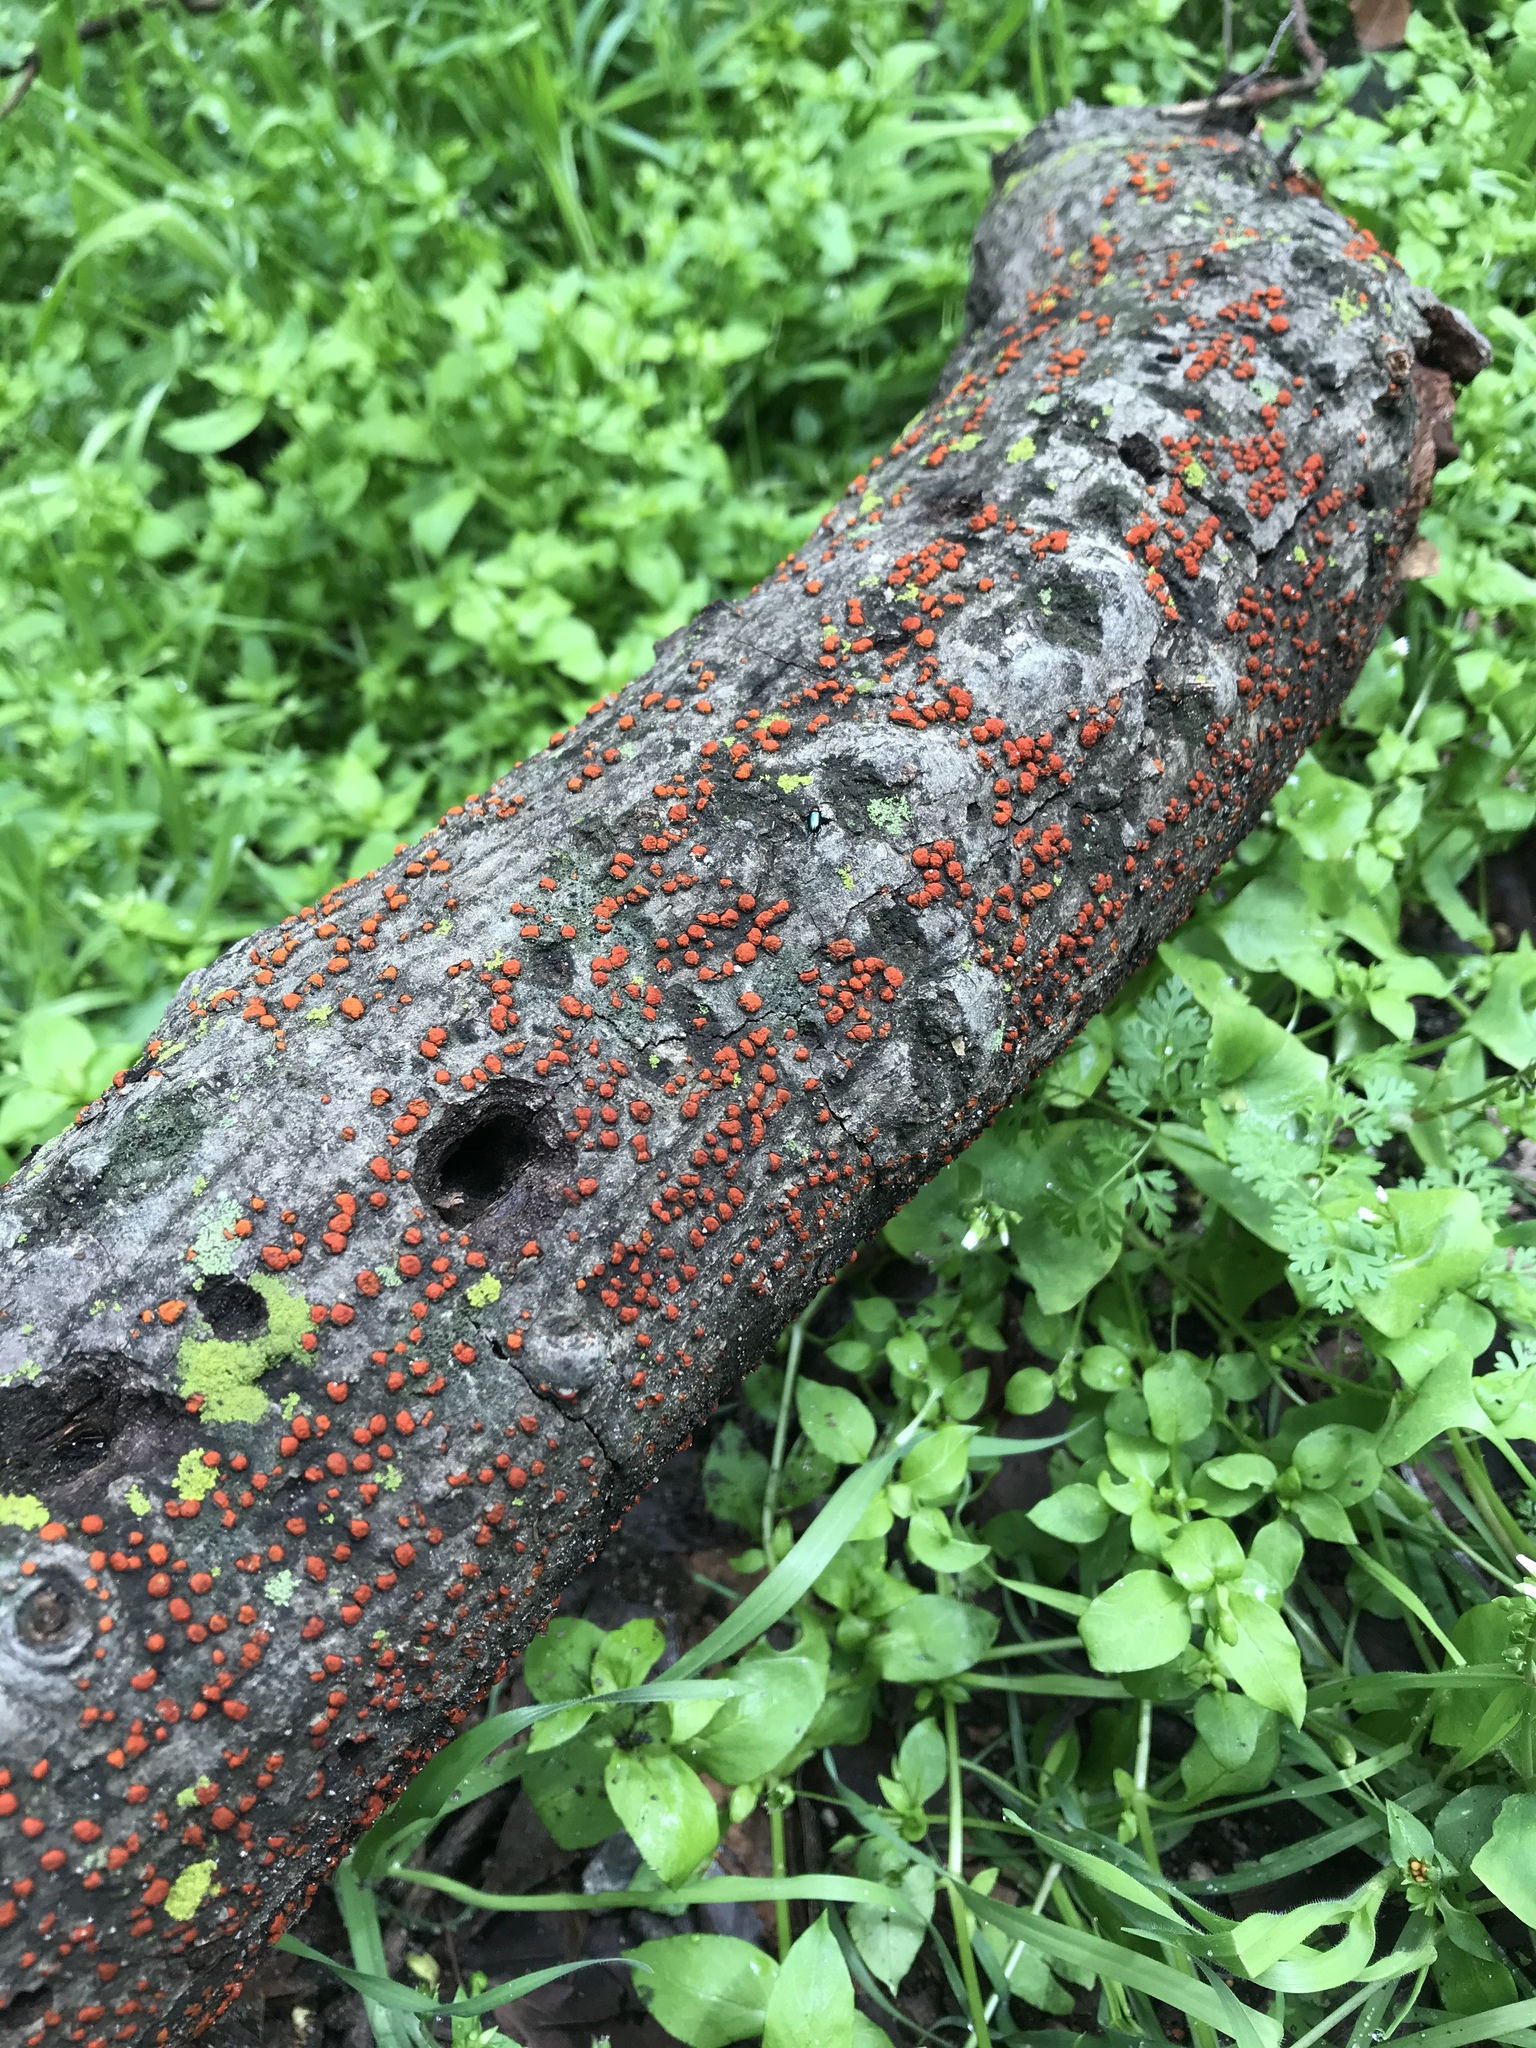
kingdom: Fungi
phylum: Ascomycota
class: Sordariomycetes
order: Diaporthales
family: Cryphonectriaceae
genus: Amphilogia
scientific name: Amphilogia gyrosa
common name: Orange hobnail canker
